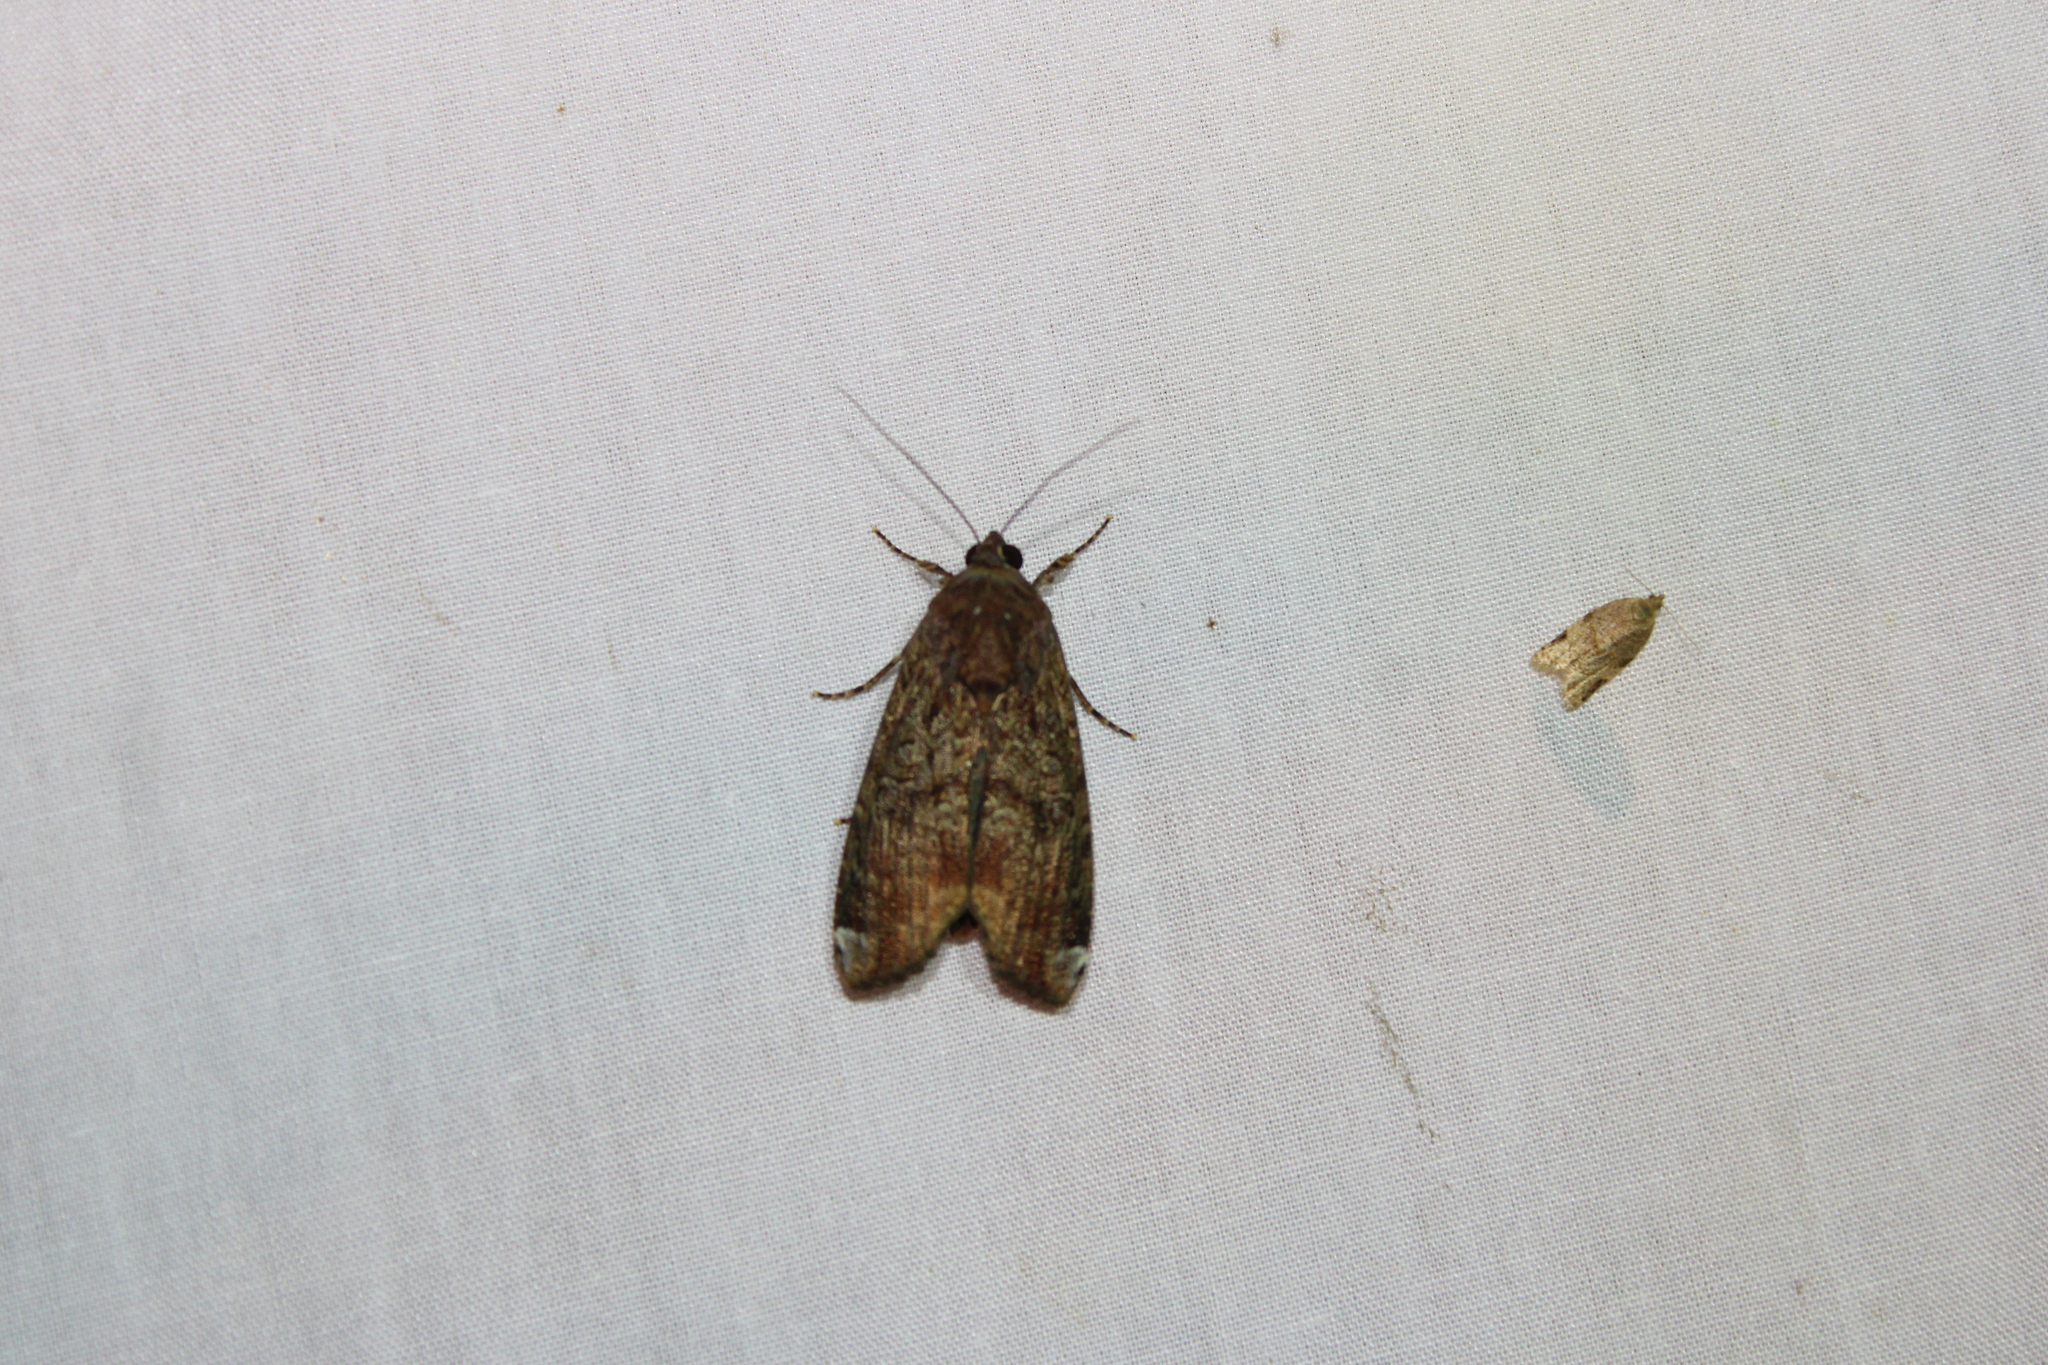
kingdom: Animalia
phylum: Arthropoda
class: Insecta
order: Lepidoptera
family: Noctuidae
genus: Magusa
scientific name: Magusa divaricata
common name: Orb narrow-winged moth
